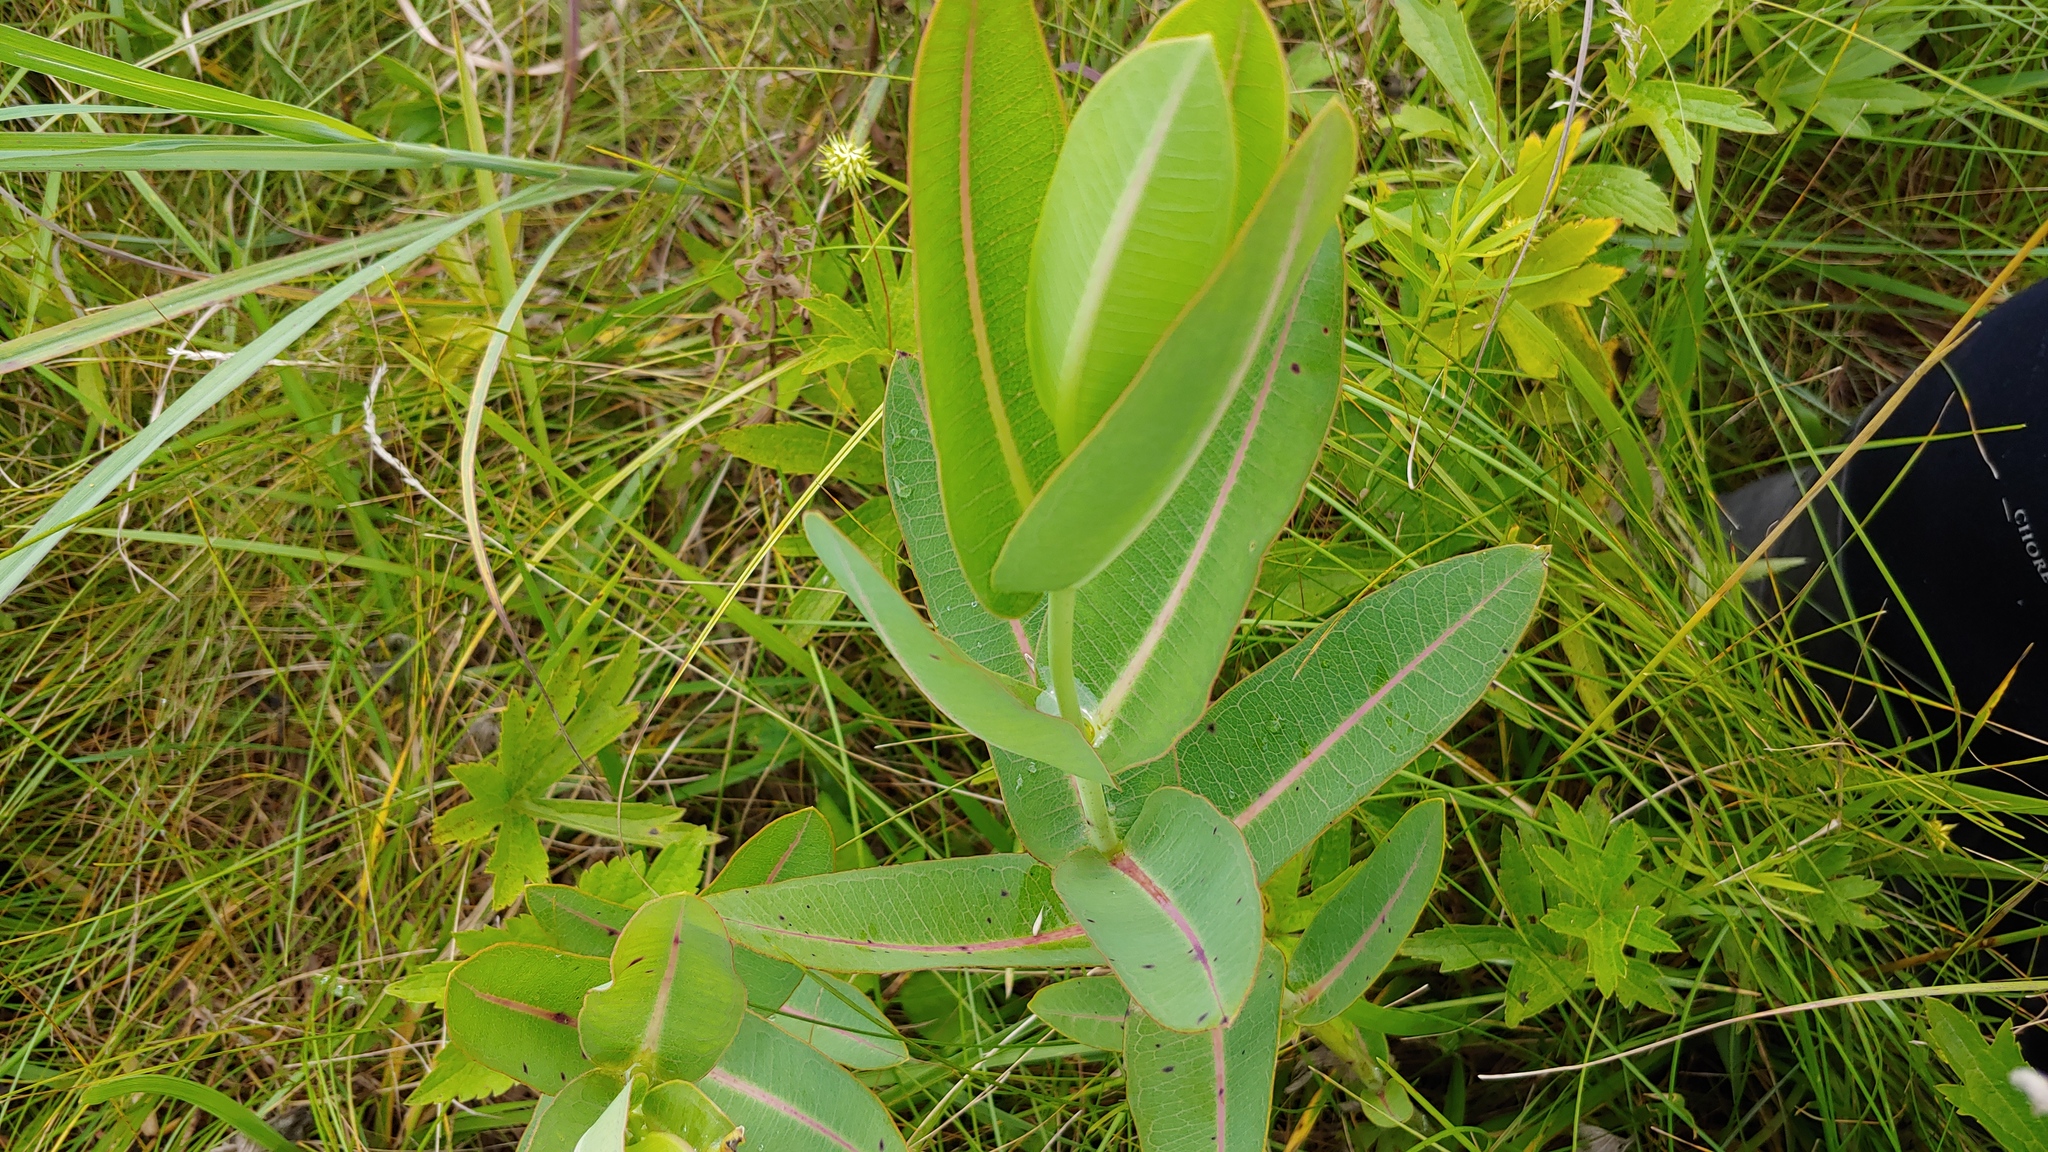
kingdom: Plantae
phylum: Tracheophyta
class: Magnoliopsida
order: Gentianales
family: Apocynaceae
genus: Asclepias
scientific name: Asclepias sullivantii
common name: Prairie milkweed
